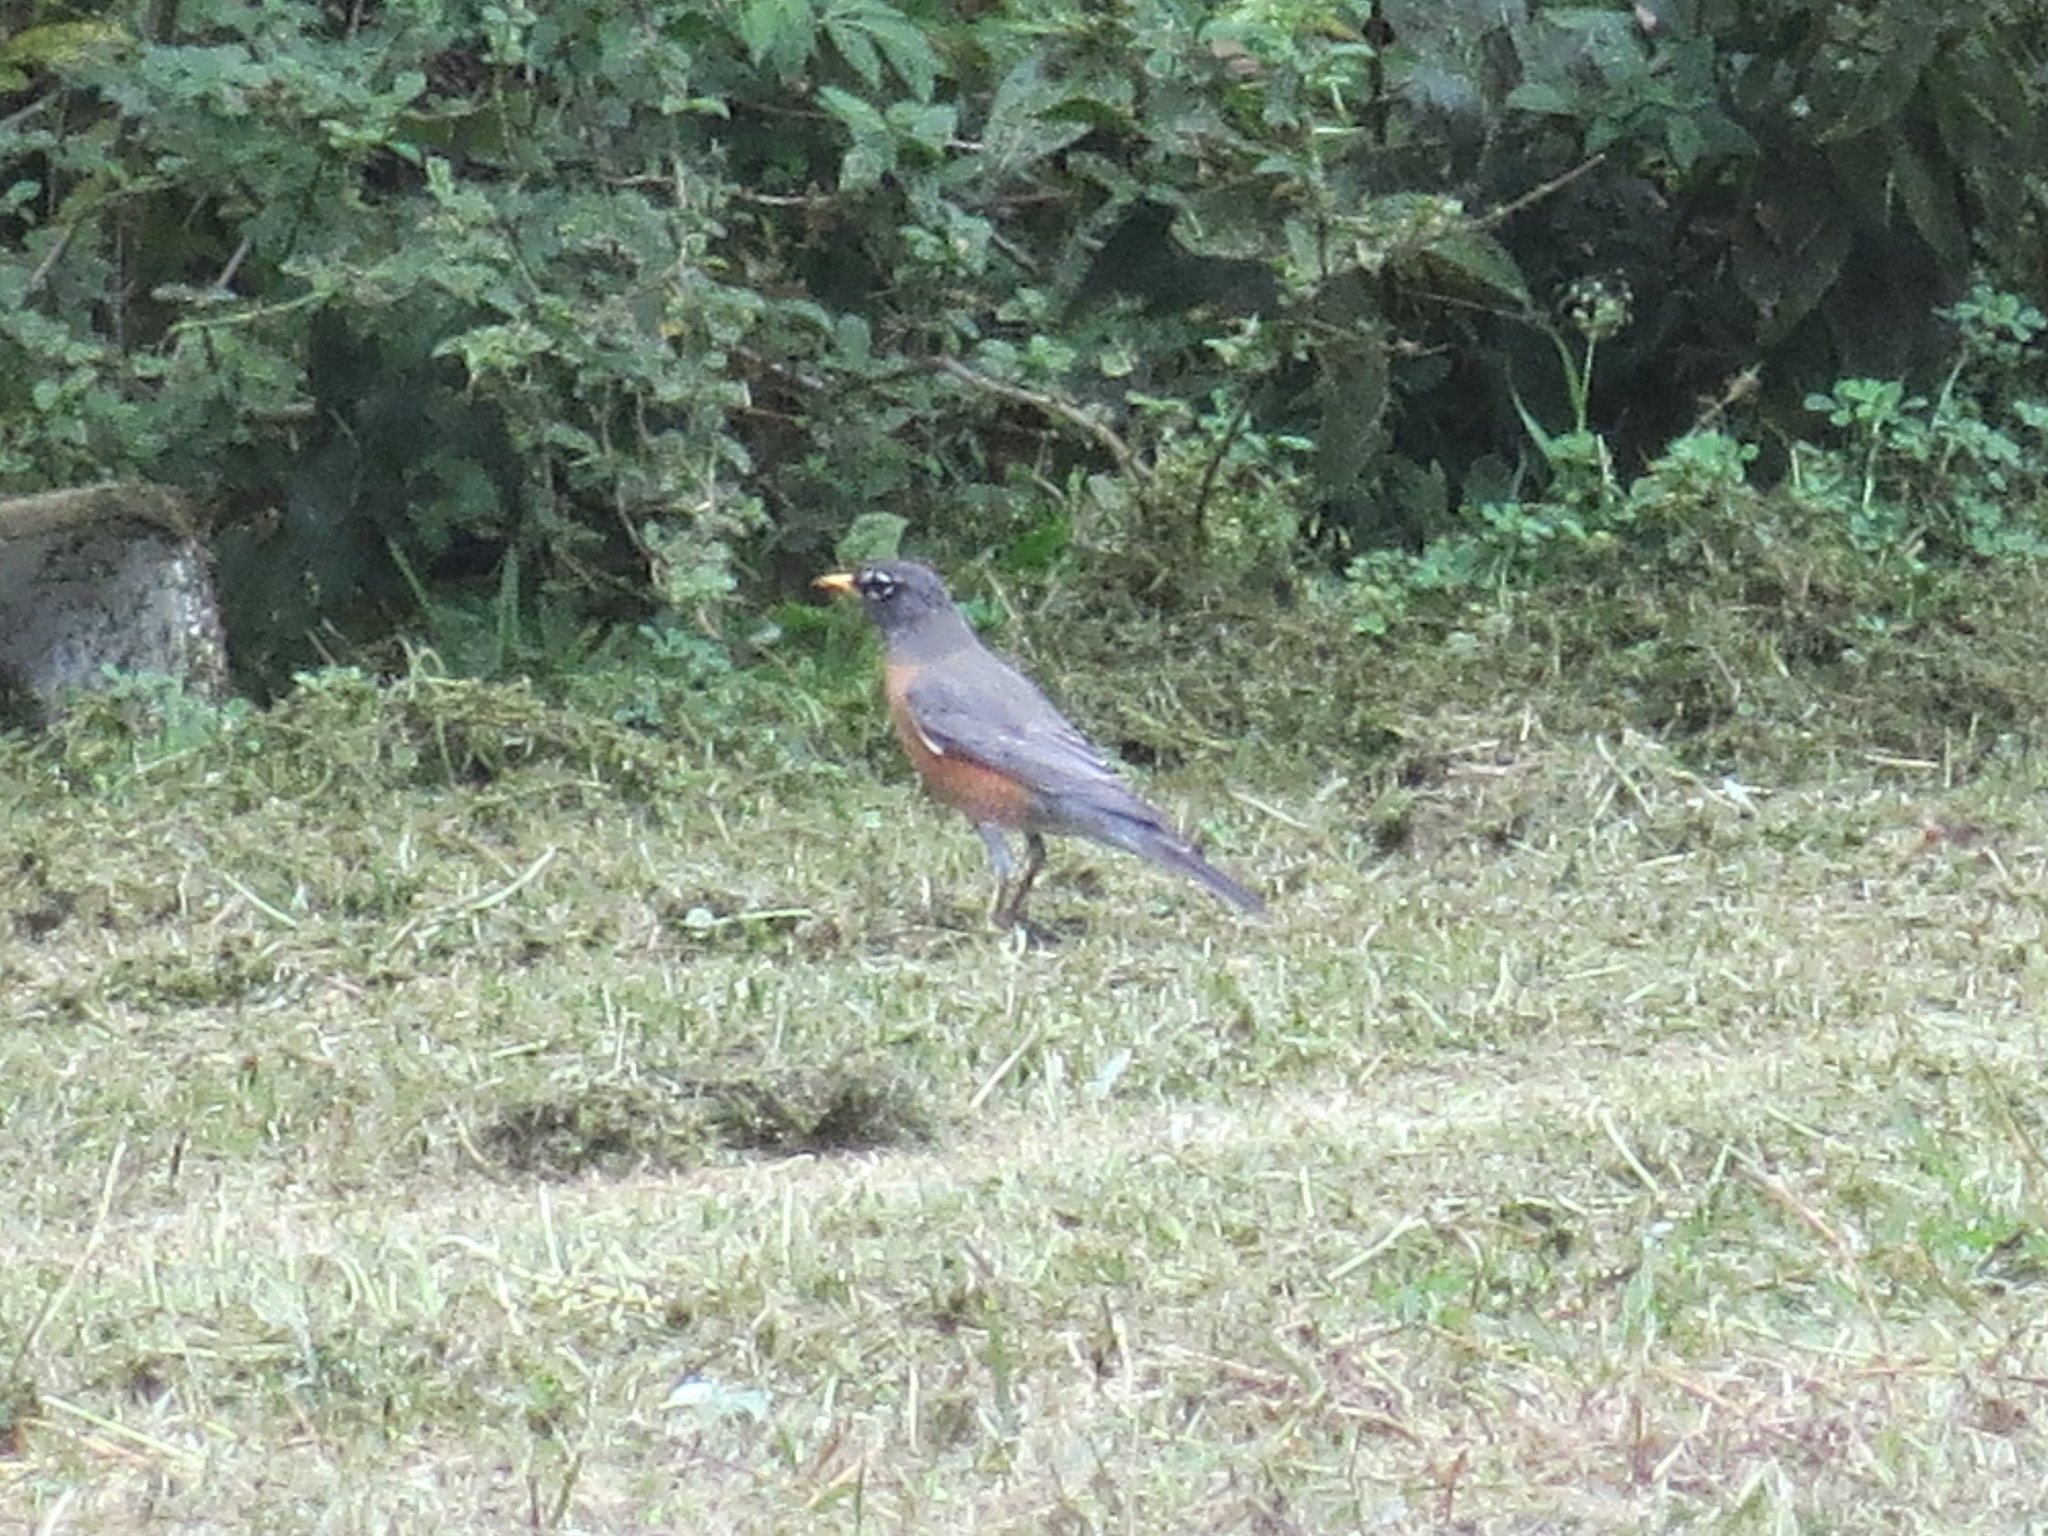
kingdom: Animalia
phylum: Chordata
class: Aves
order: Passeriformes
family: Turdidae
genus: Turdus
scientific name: Turdus migratorius
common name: American robin
